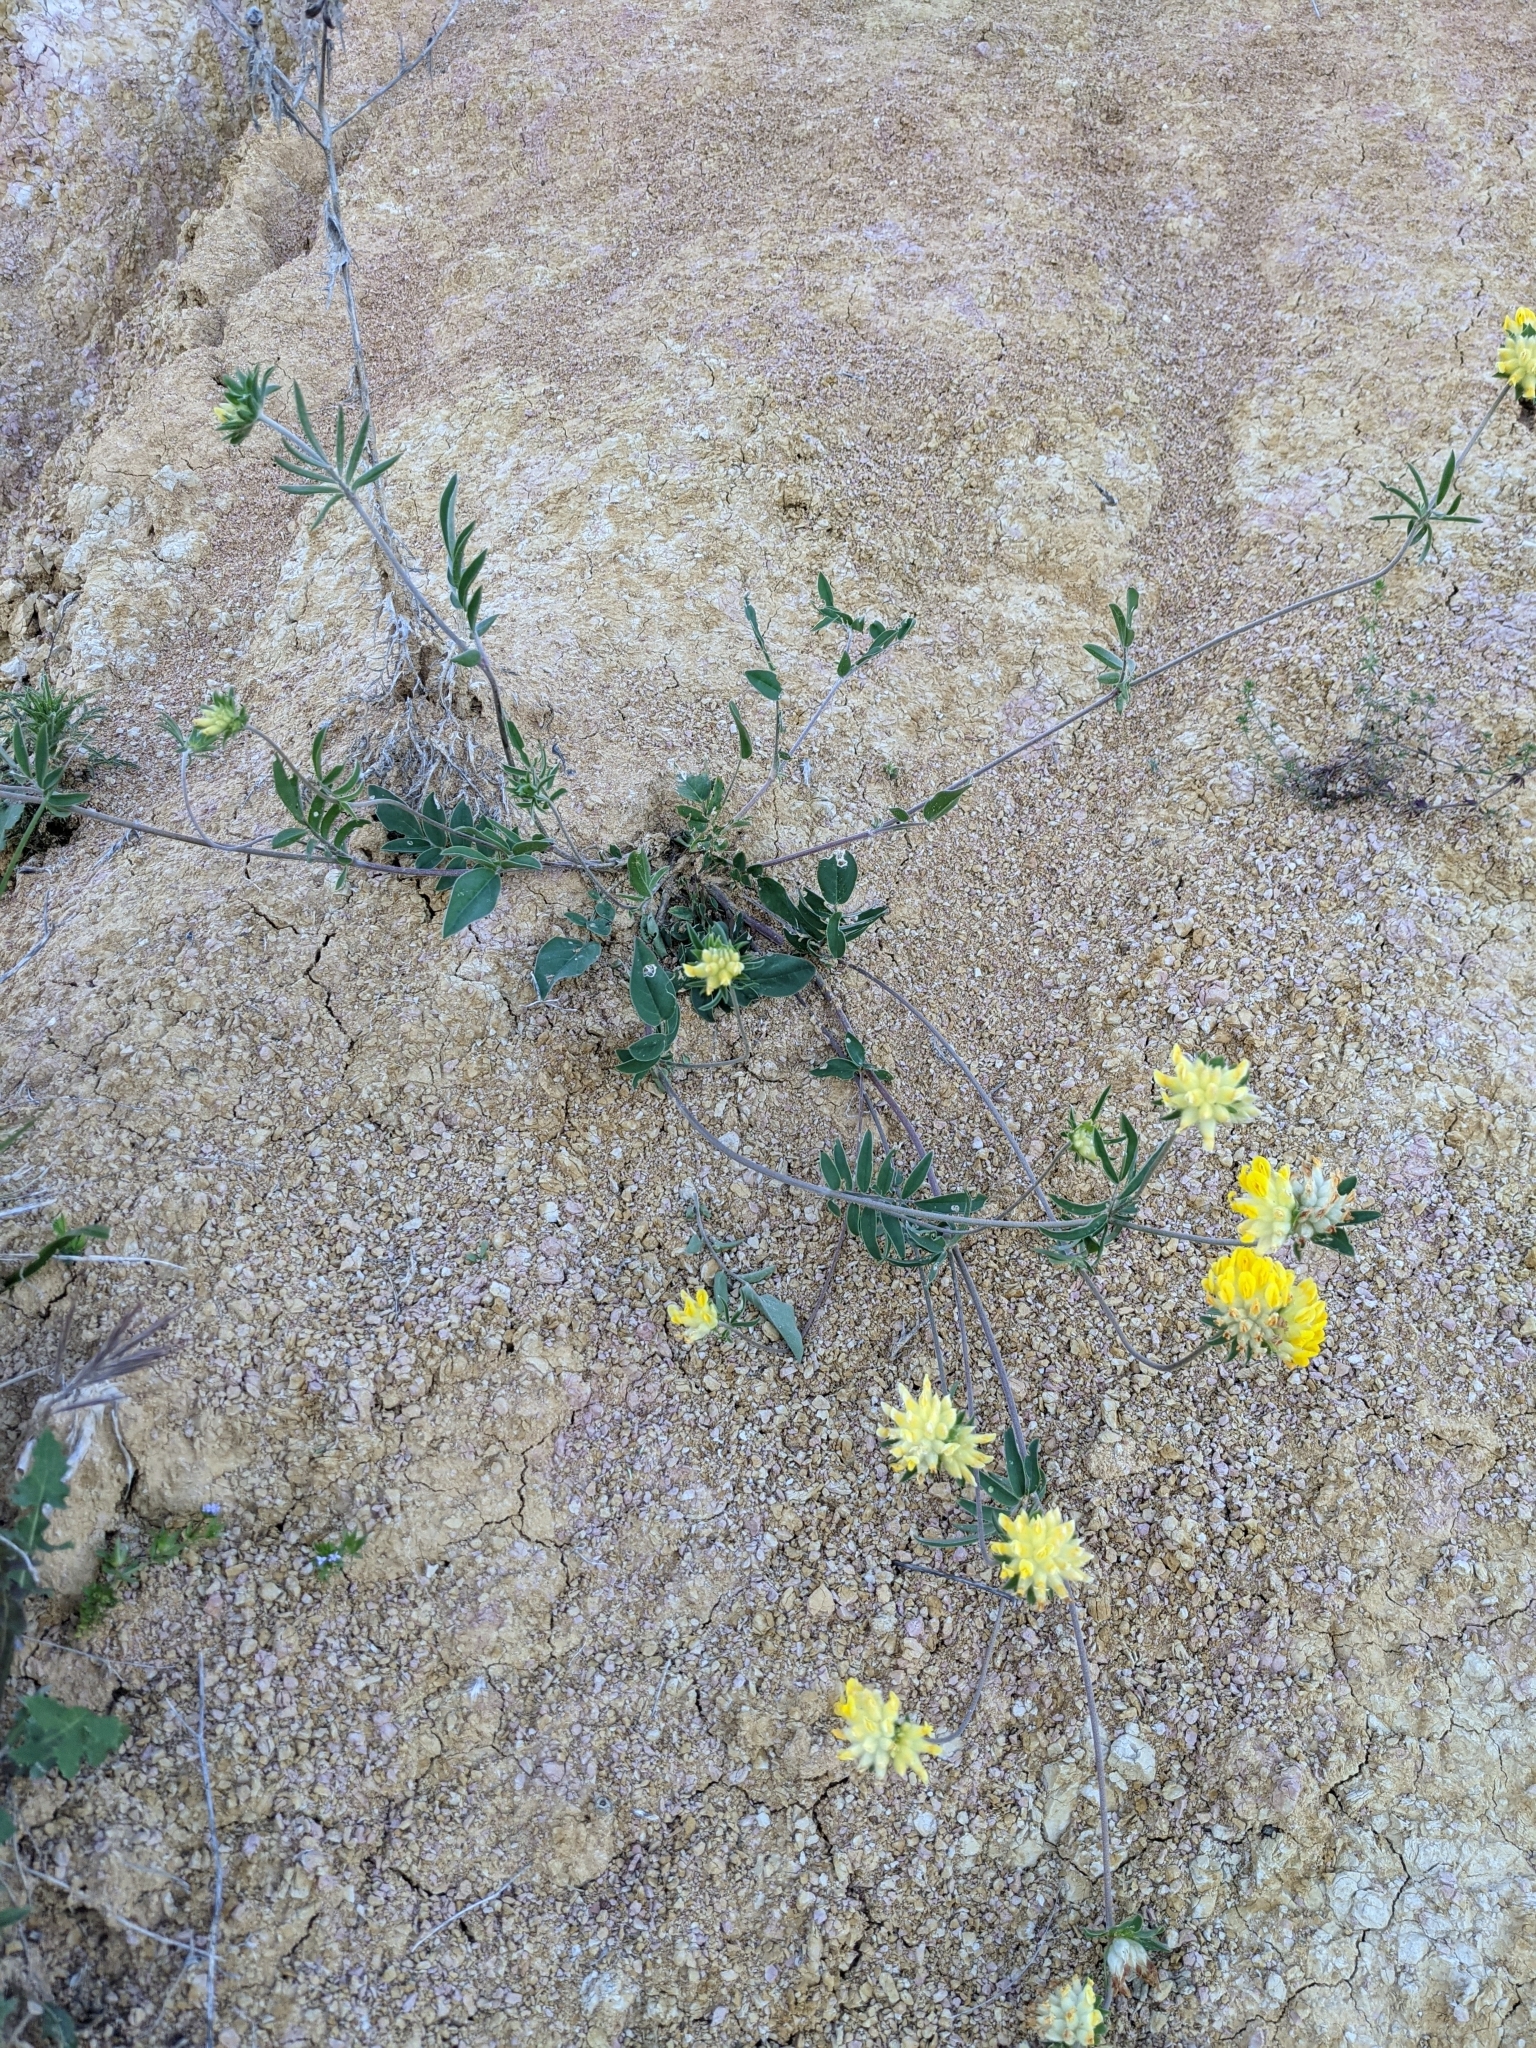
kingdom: Plantae
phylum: Tracheophyta
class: Magnoliopsida
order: Fabales
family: Fabaceae
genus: Anthyllis
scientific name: Anthyllis vulneraria
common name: Kidney vetch
